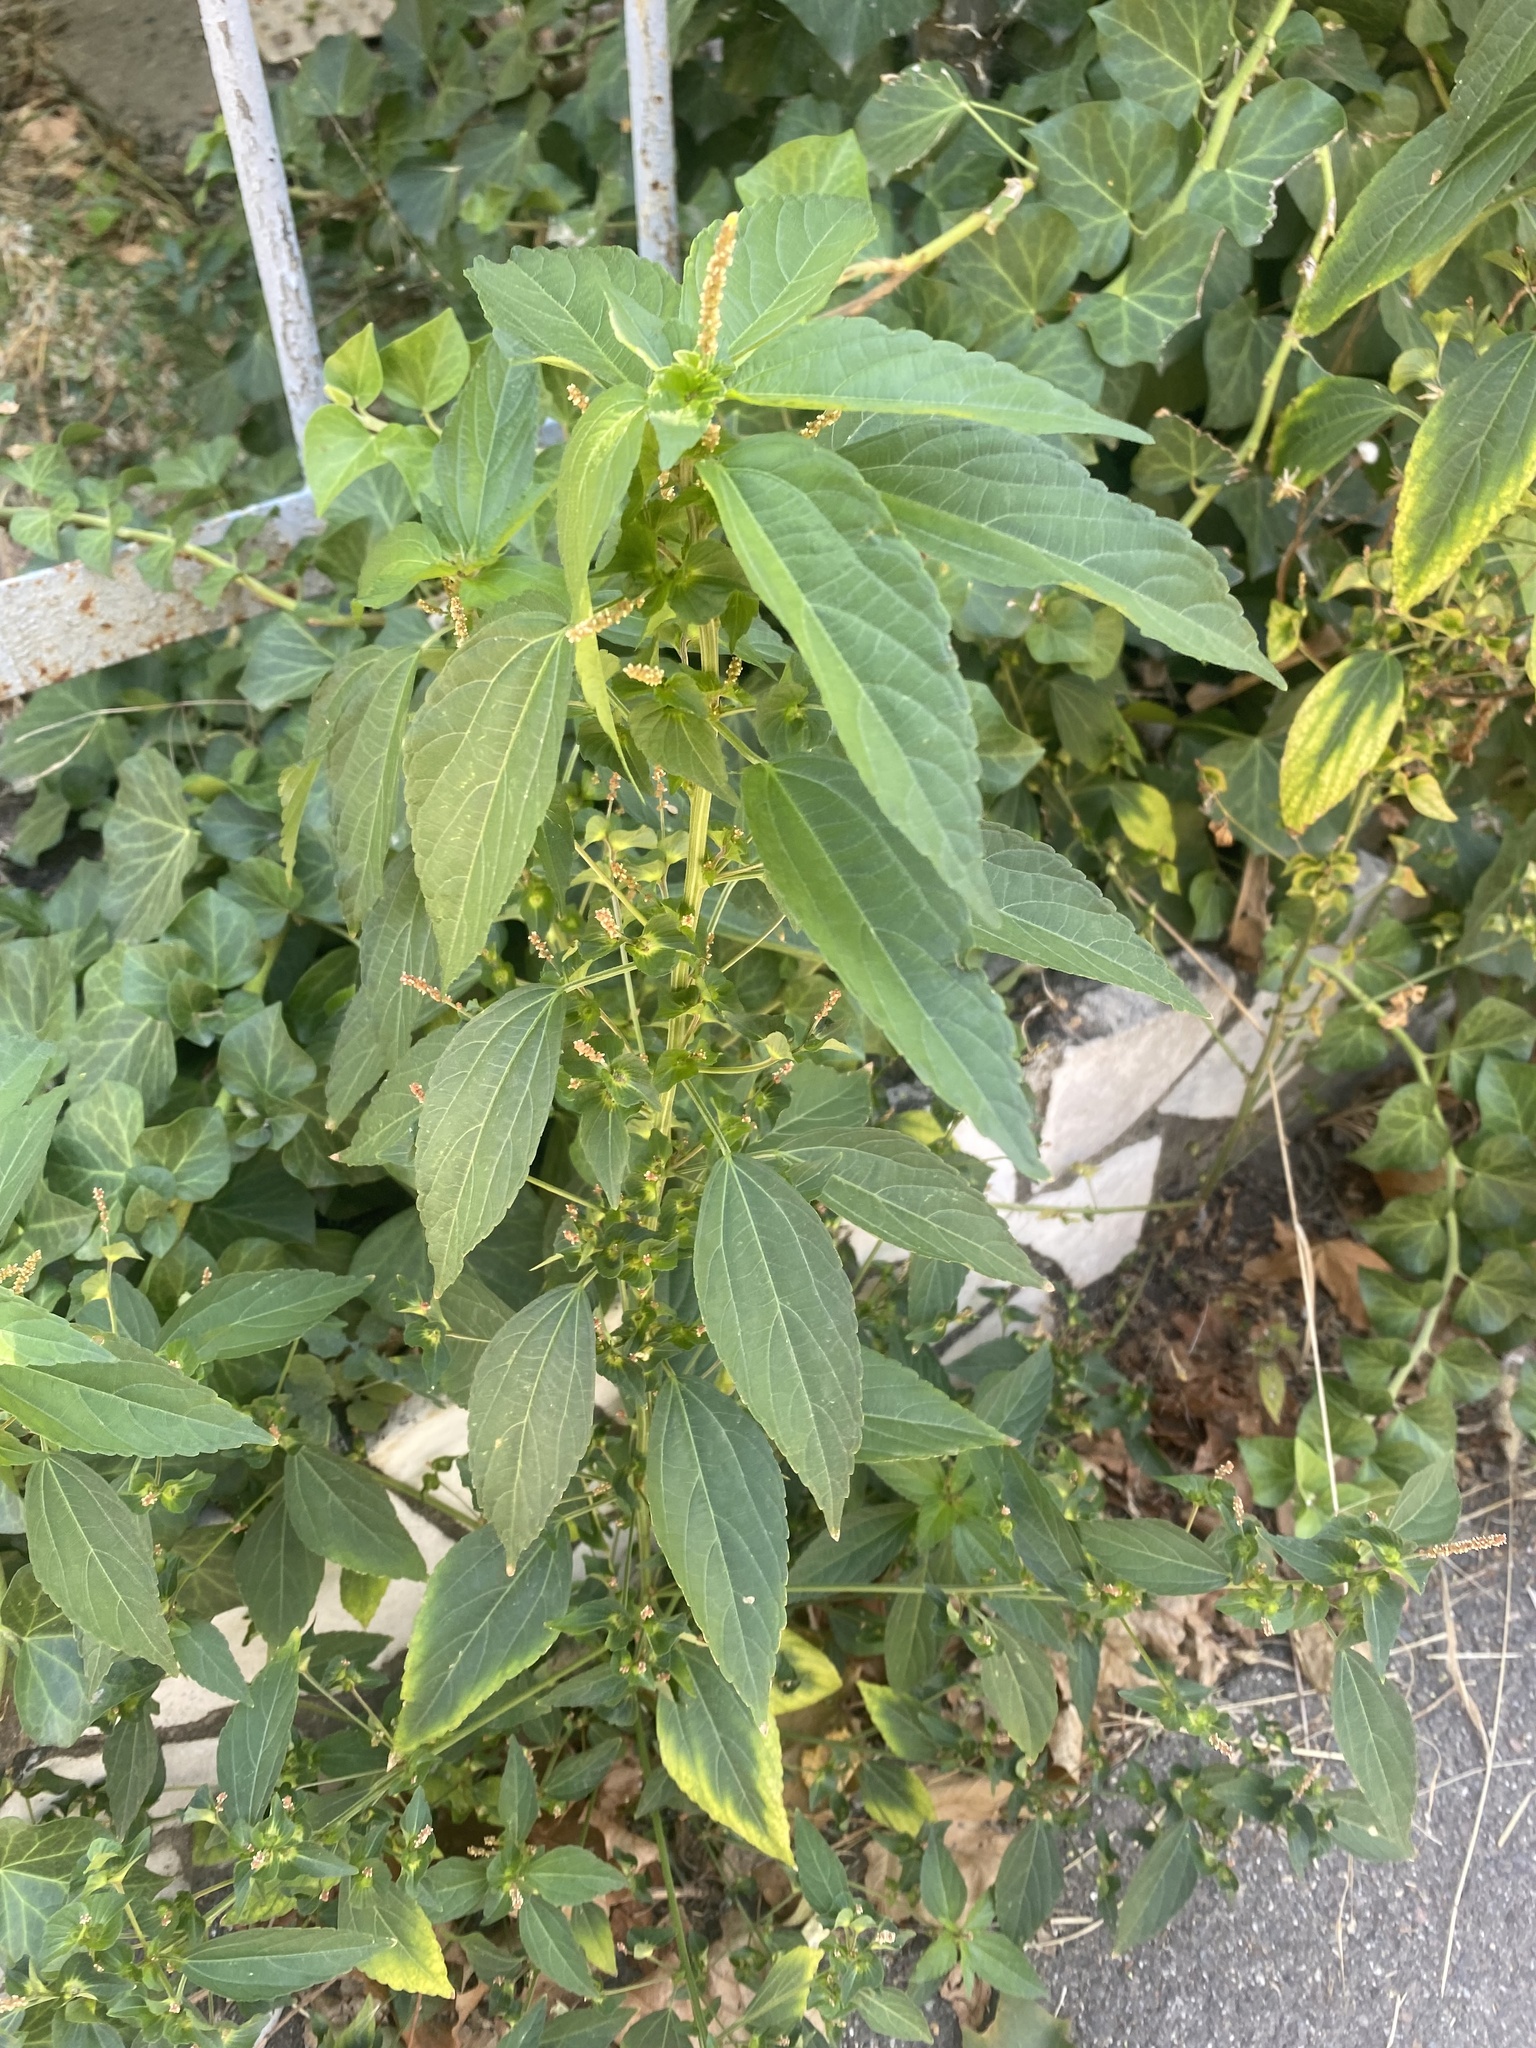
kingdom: Plantae
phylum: Tracheophyta
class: Magnoliopsida
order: Malpighiales
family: Euphorbiaceae
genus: Acalypha
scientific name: Acalypha australis
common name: Asian copperleaf
